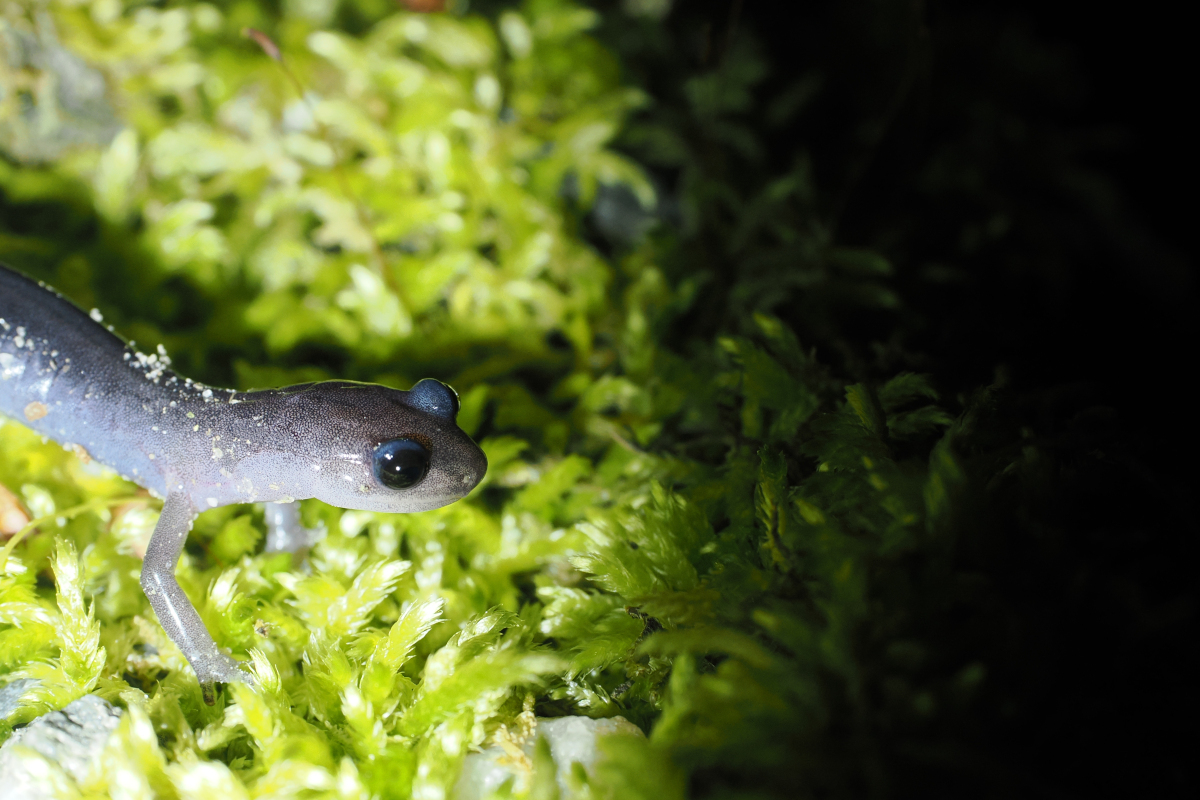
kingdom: Animalia
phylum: Chordata
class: Amphibia
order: Caudata
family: Plethodontidae
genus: Plethodon
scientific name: Plethodon montanus
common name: Northern gray-cheeked salamander
